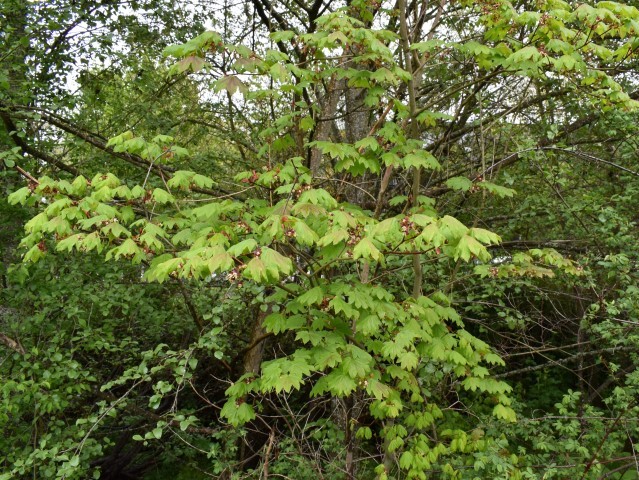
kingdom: Plantae
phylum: Tracheophyta
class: Magnoliopsida
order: Sapindales
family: Sapindaceae
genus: Acer
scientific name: Acer circinatum
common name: Vine maple
